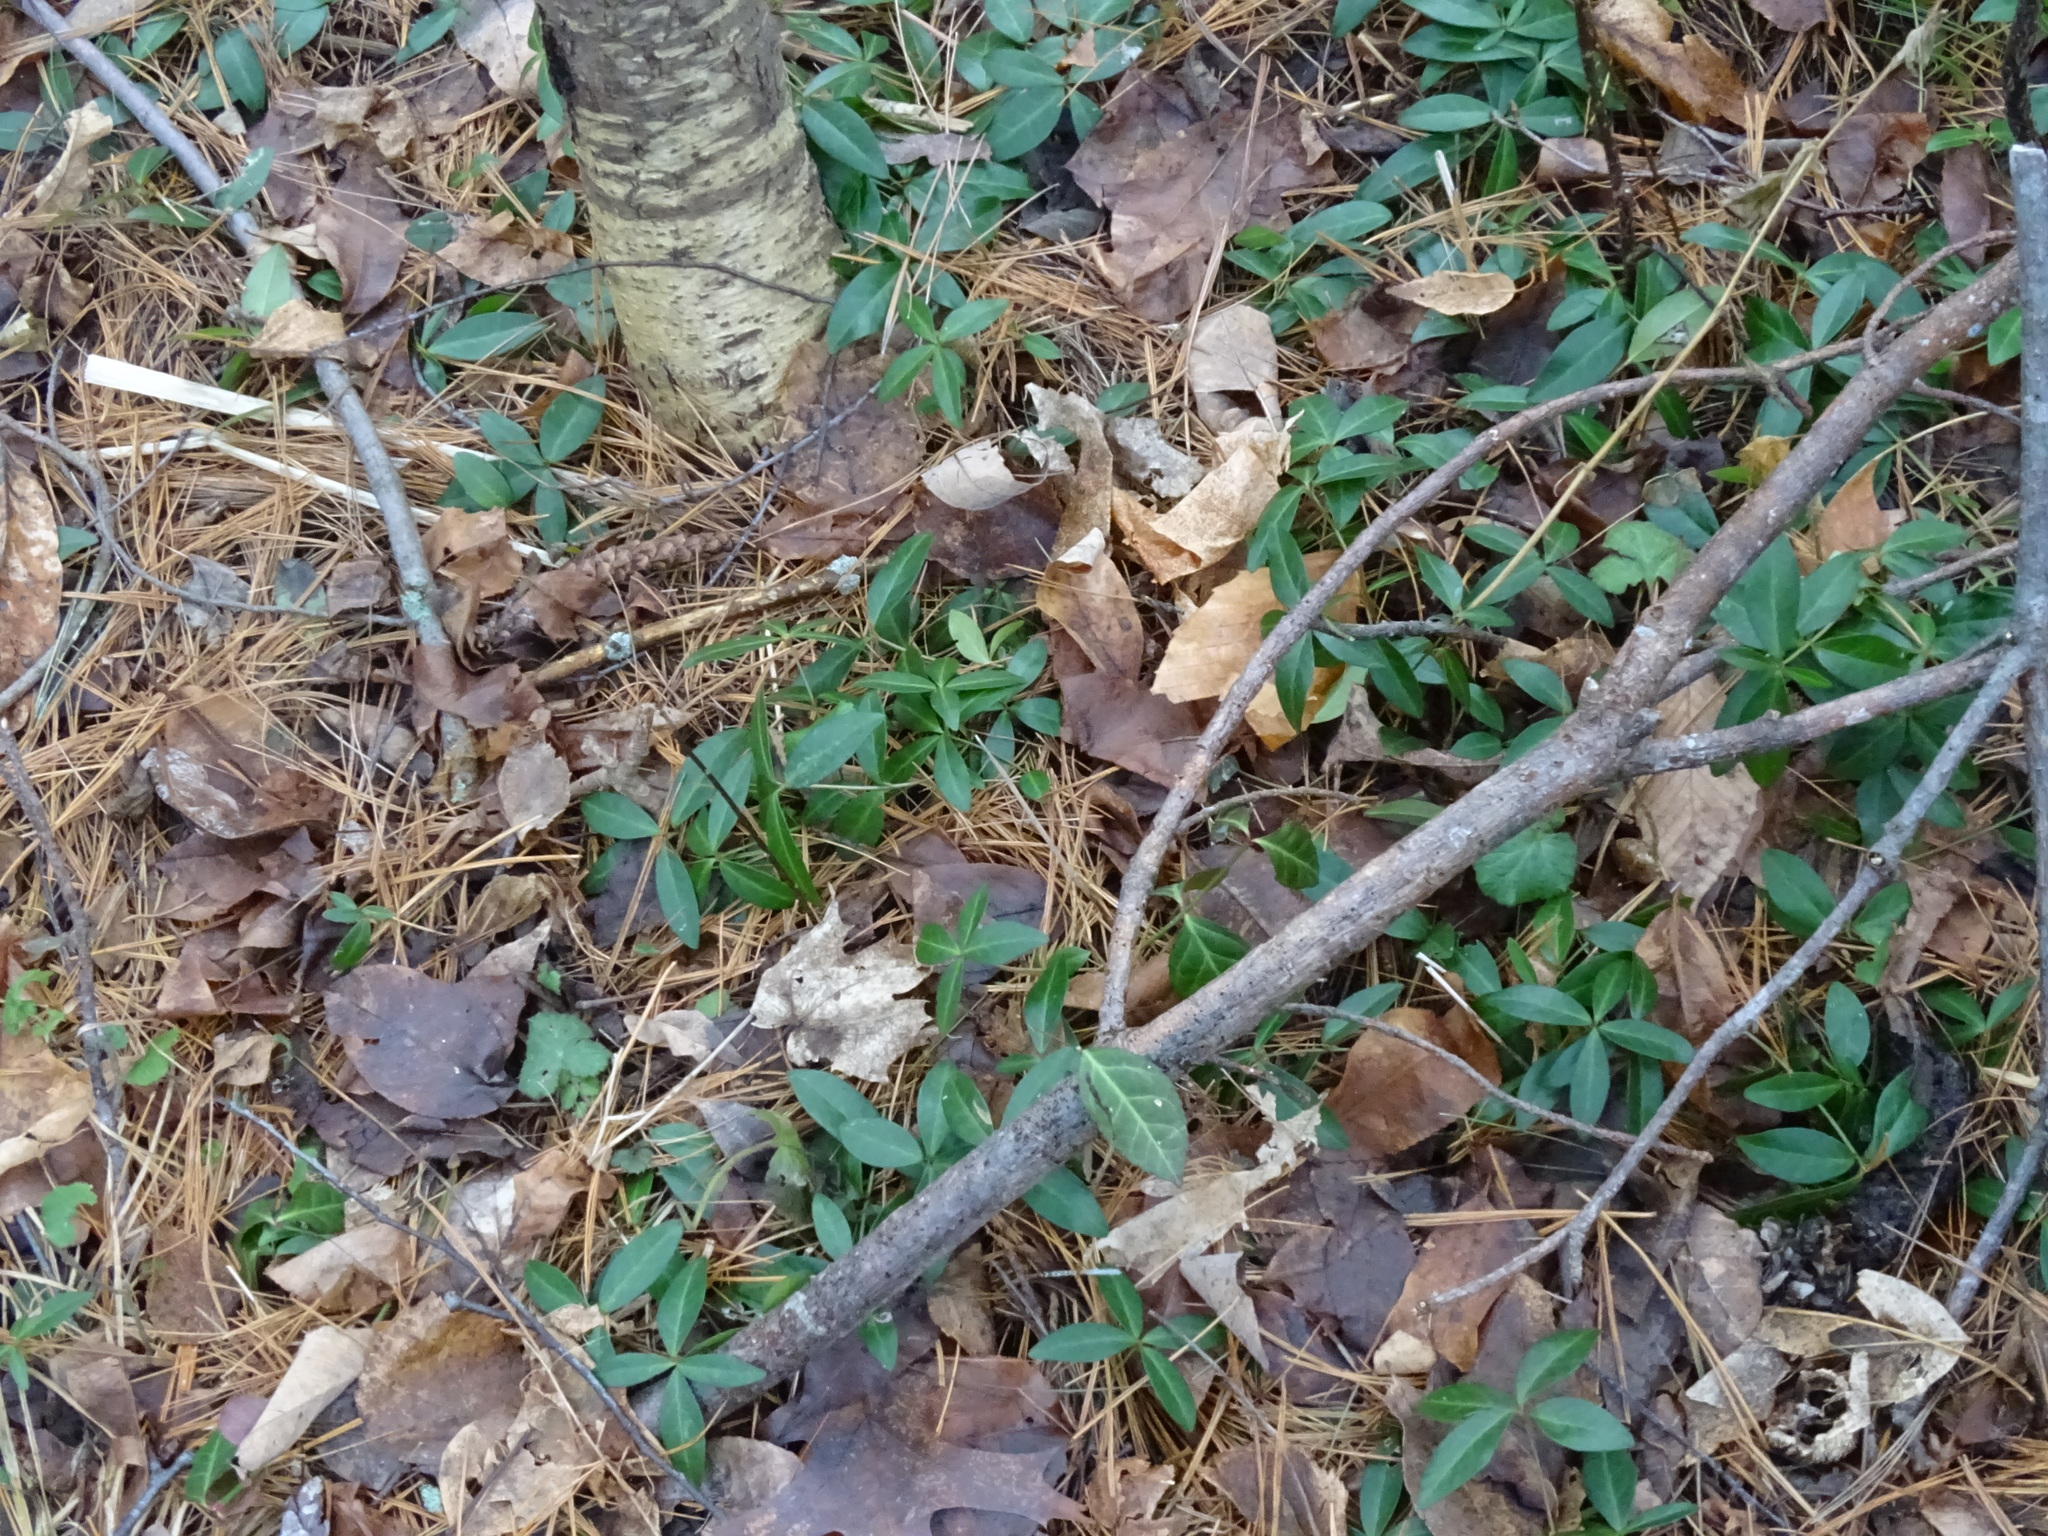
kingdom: Plantae
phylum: Tracheophyta
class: Magnoliopsida
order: Gentianales
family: Apocynaceae
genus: Vinca
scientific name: Vinca minor
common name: Lesser periwinkle
